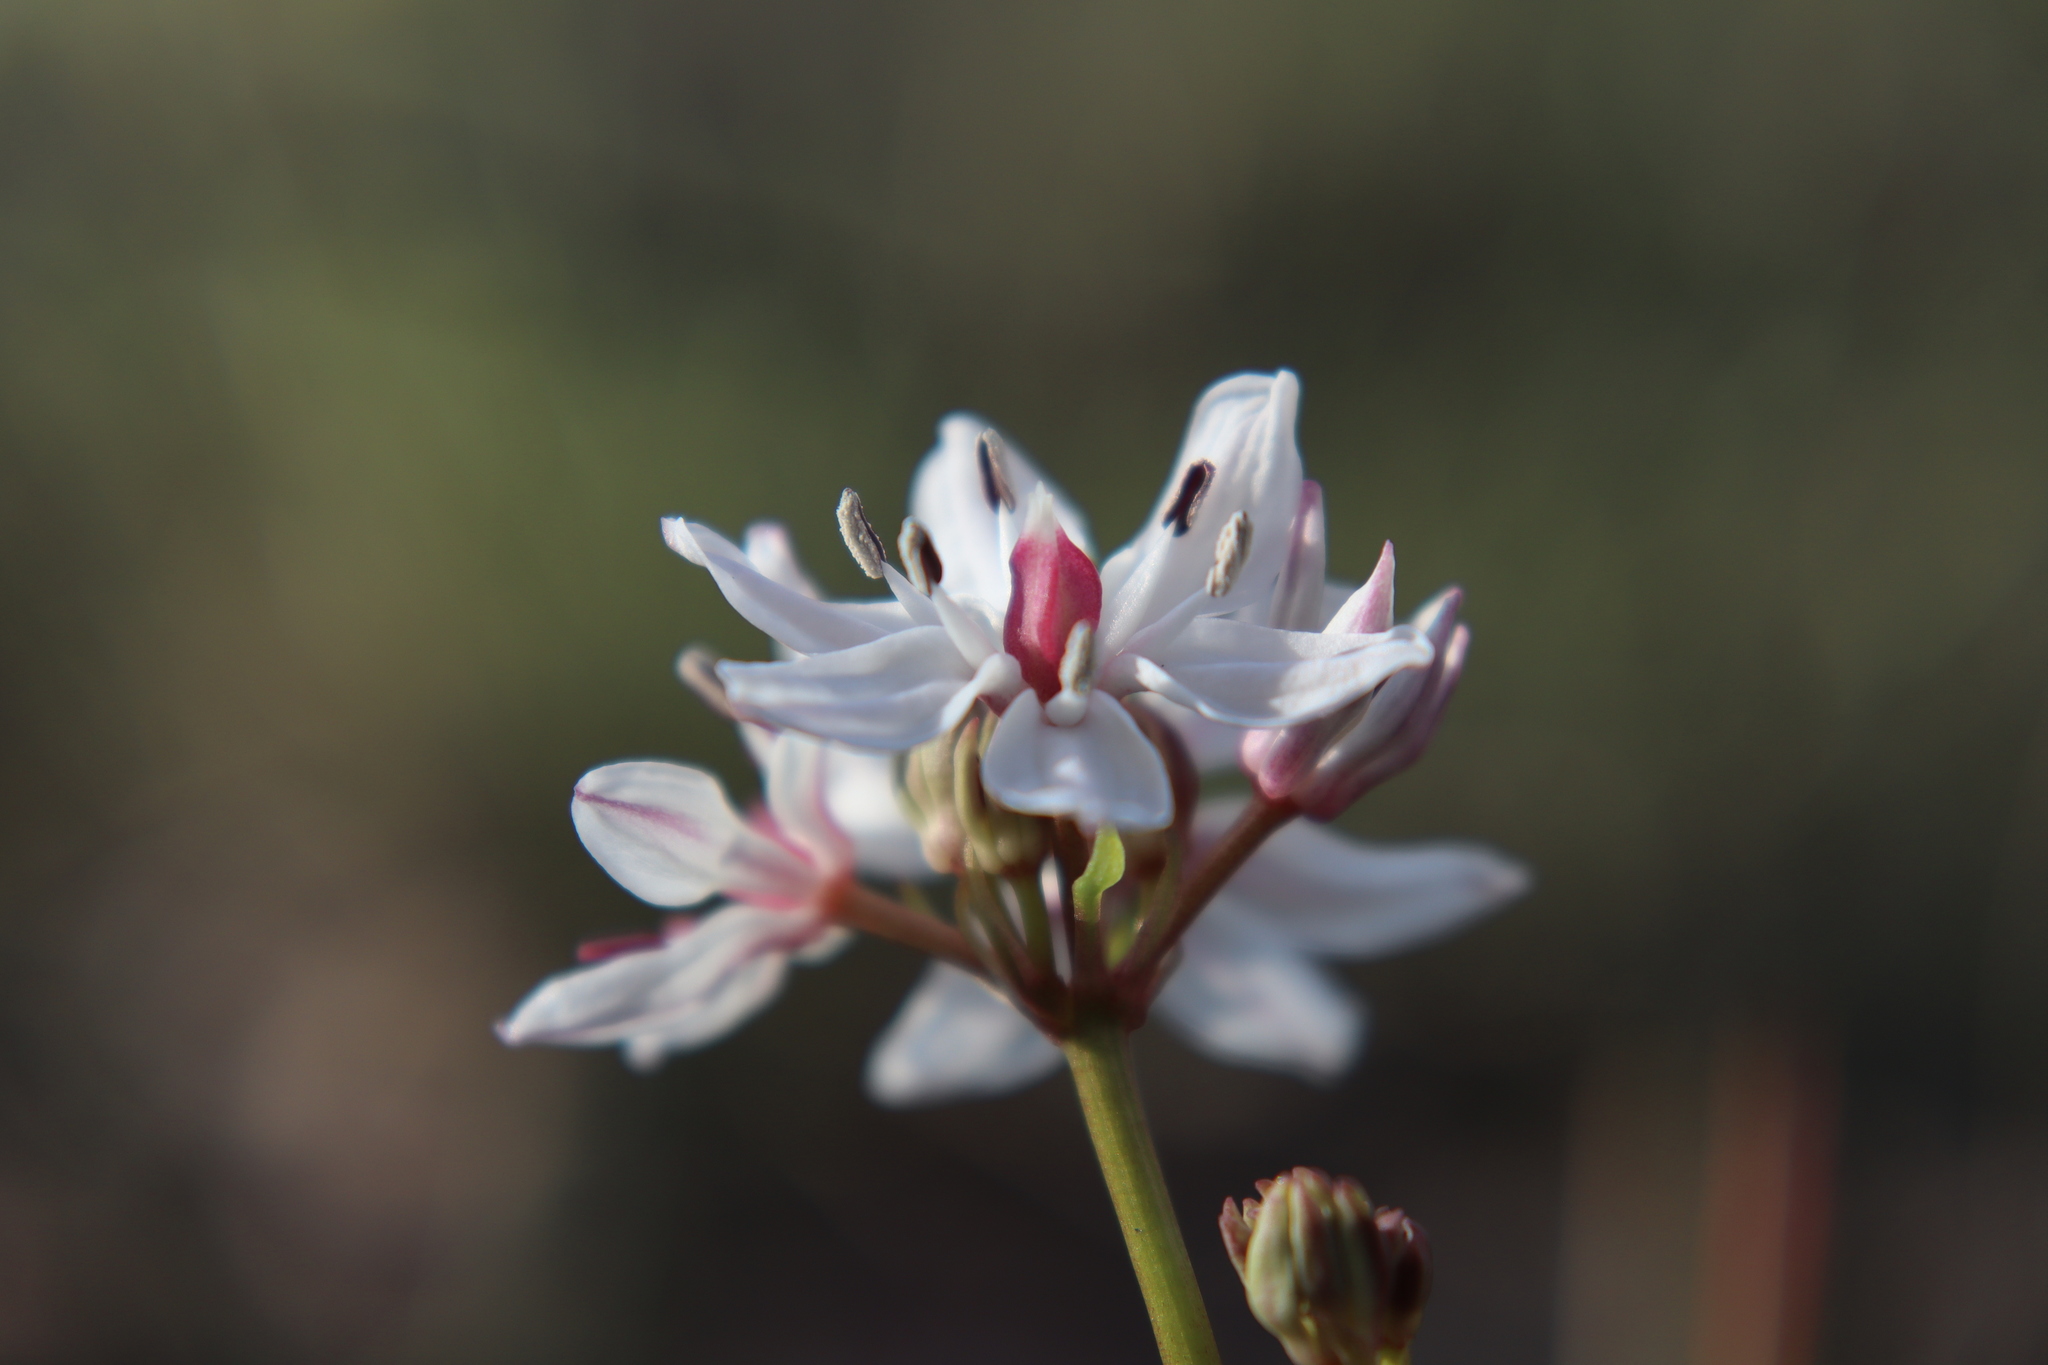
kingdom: Plantae
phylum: Tracheophyta
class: Liliopsida
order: Liliales
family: Colchicaceae
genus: Burchardia
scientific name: Burchardia umbellata
